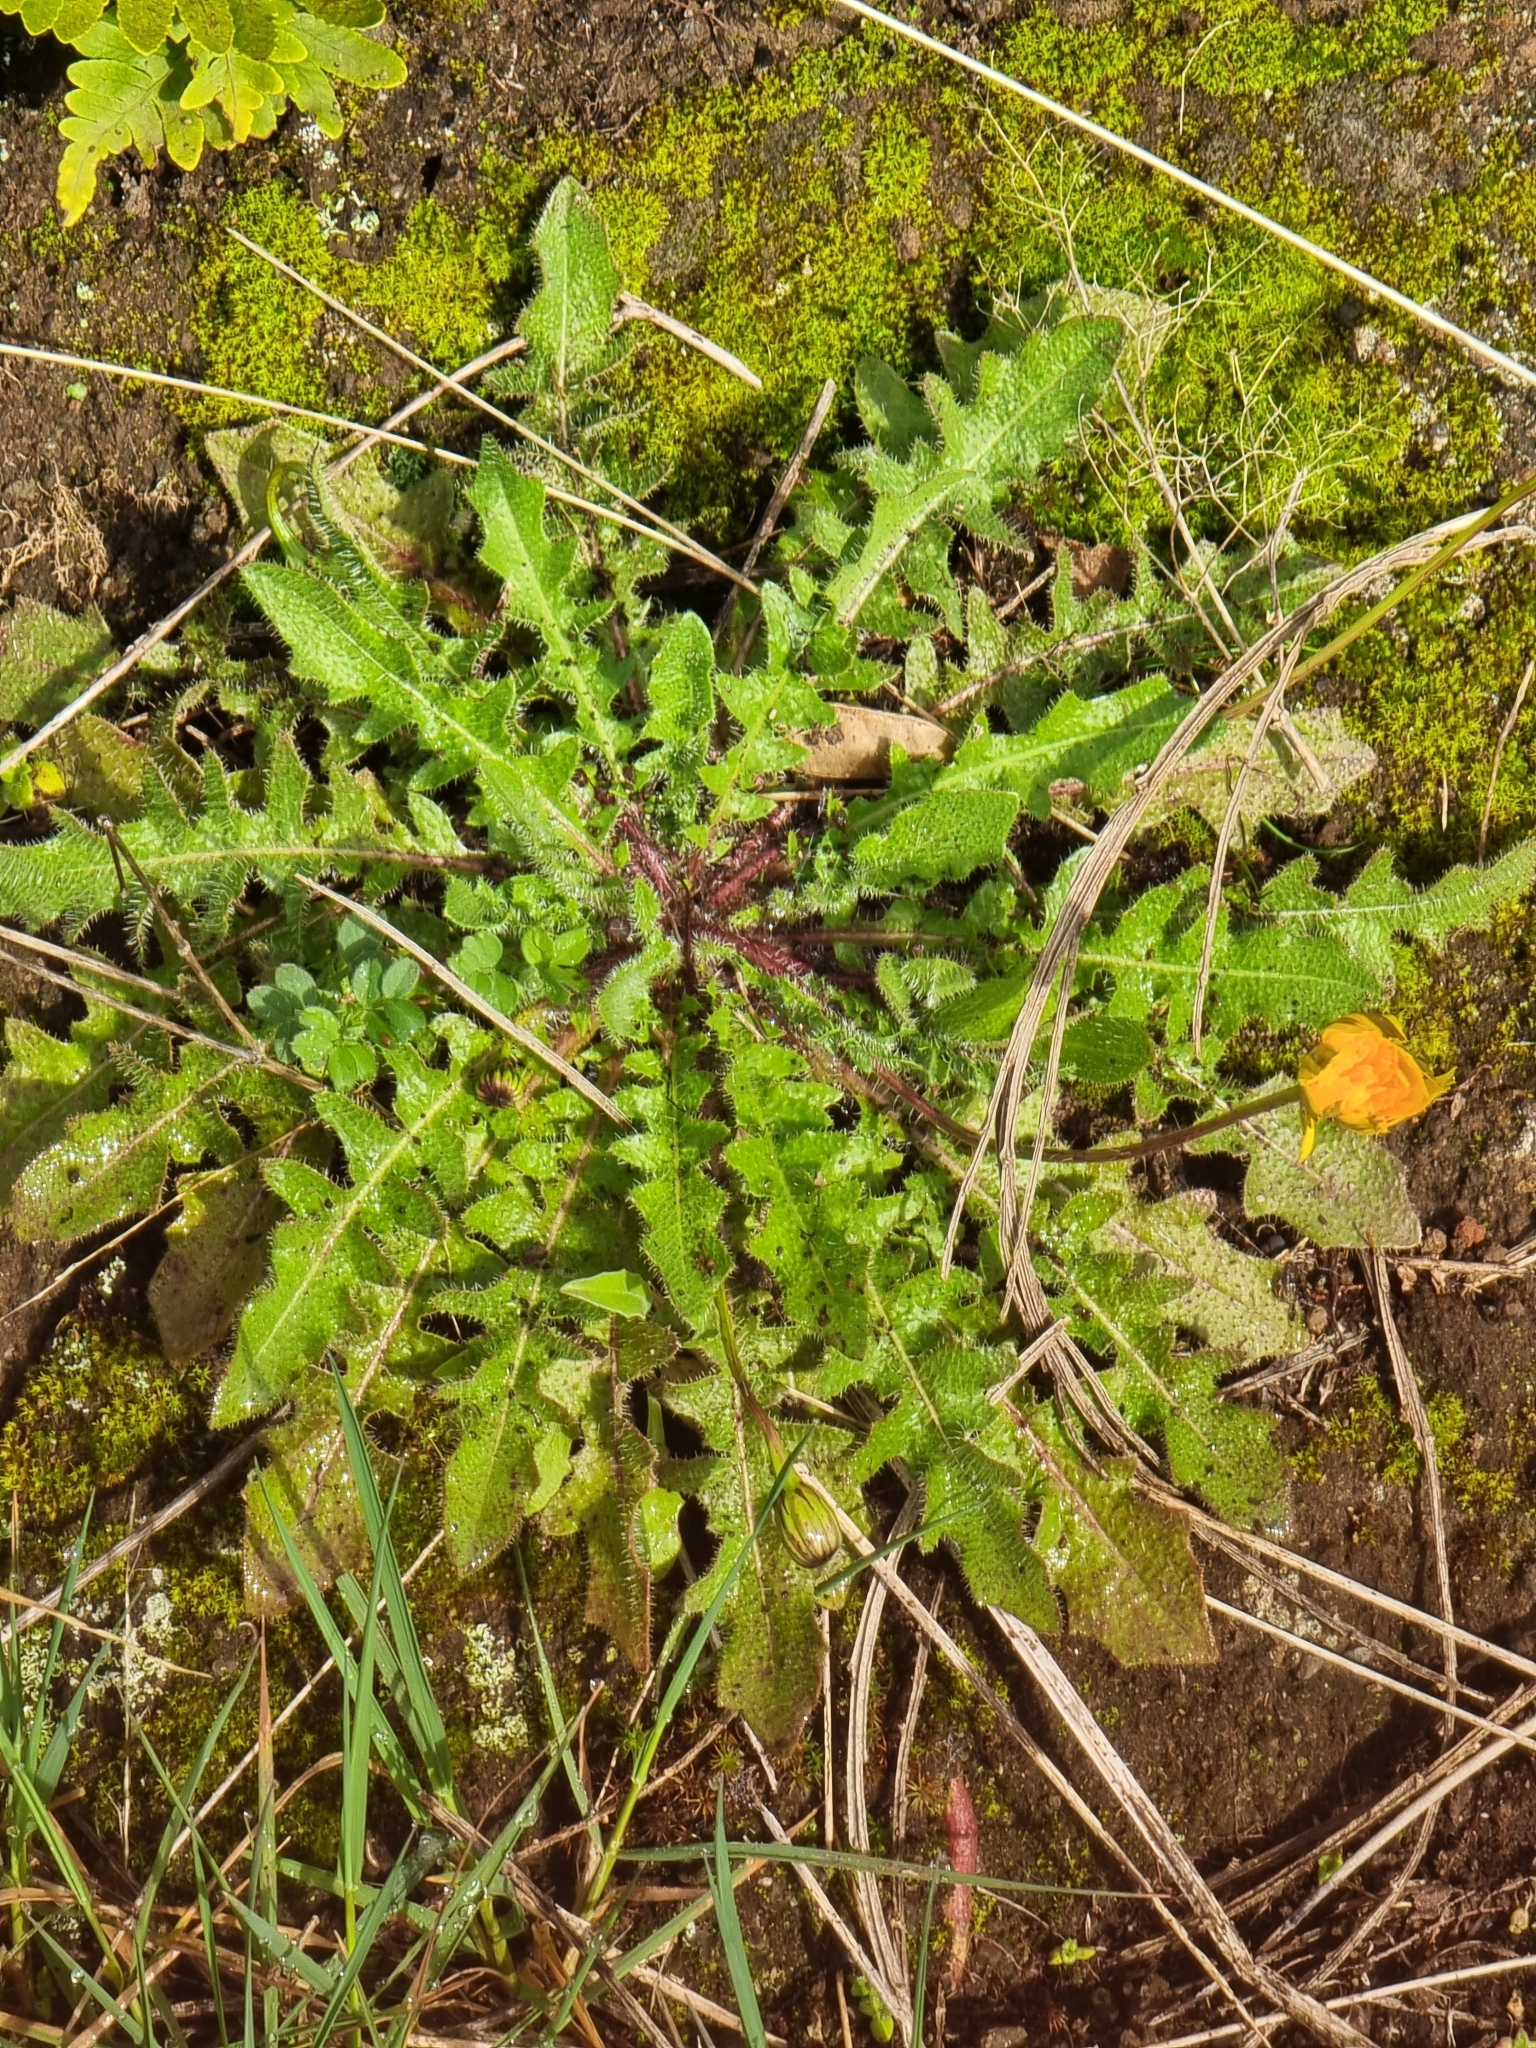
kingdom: Plantae
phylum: Tracheophyta
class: Magnoliopsida
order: Asterales
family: Asteraceae
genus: Hypochaeris
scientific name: Hypochaeris radicata
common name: Flatweed
